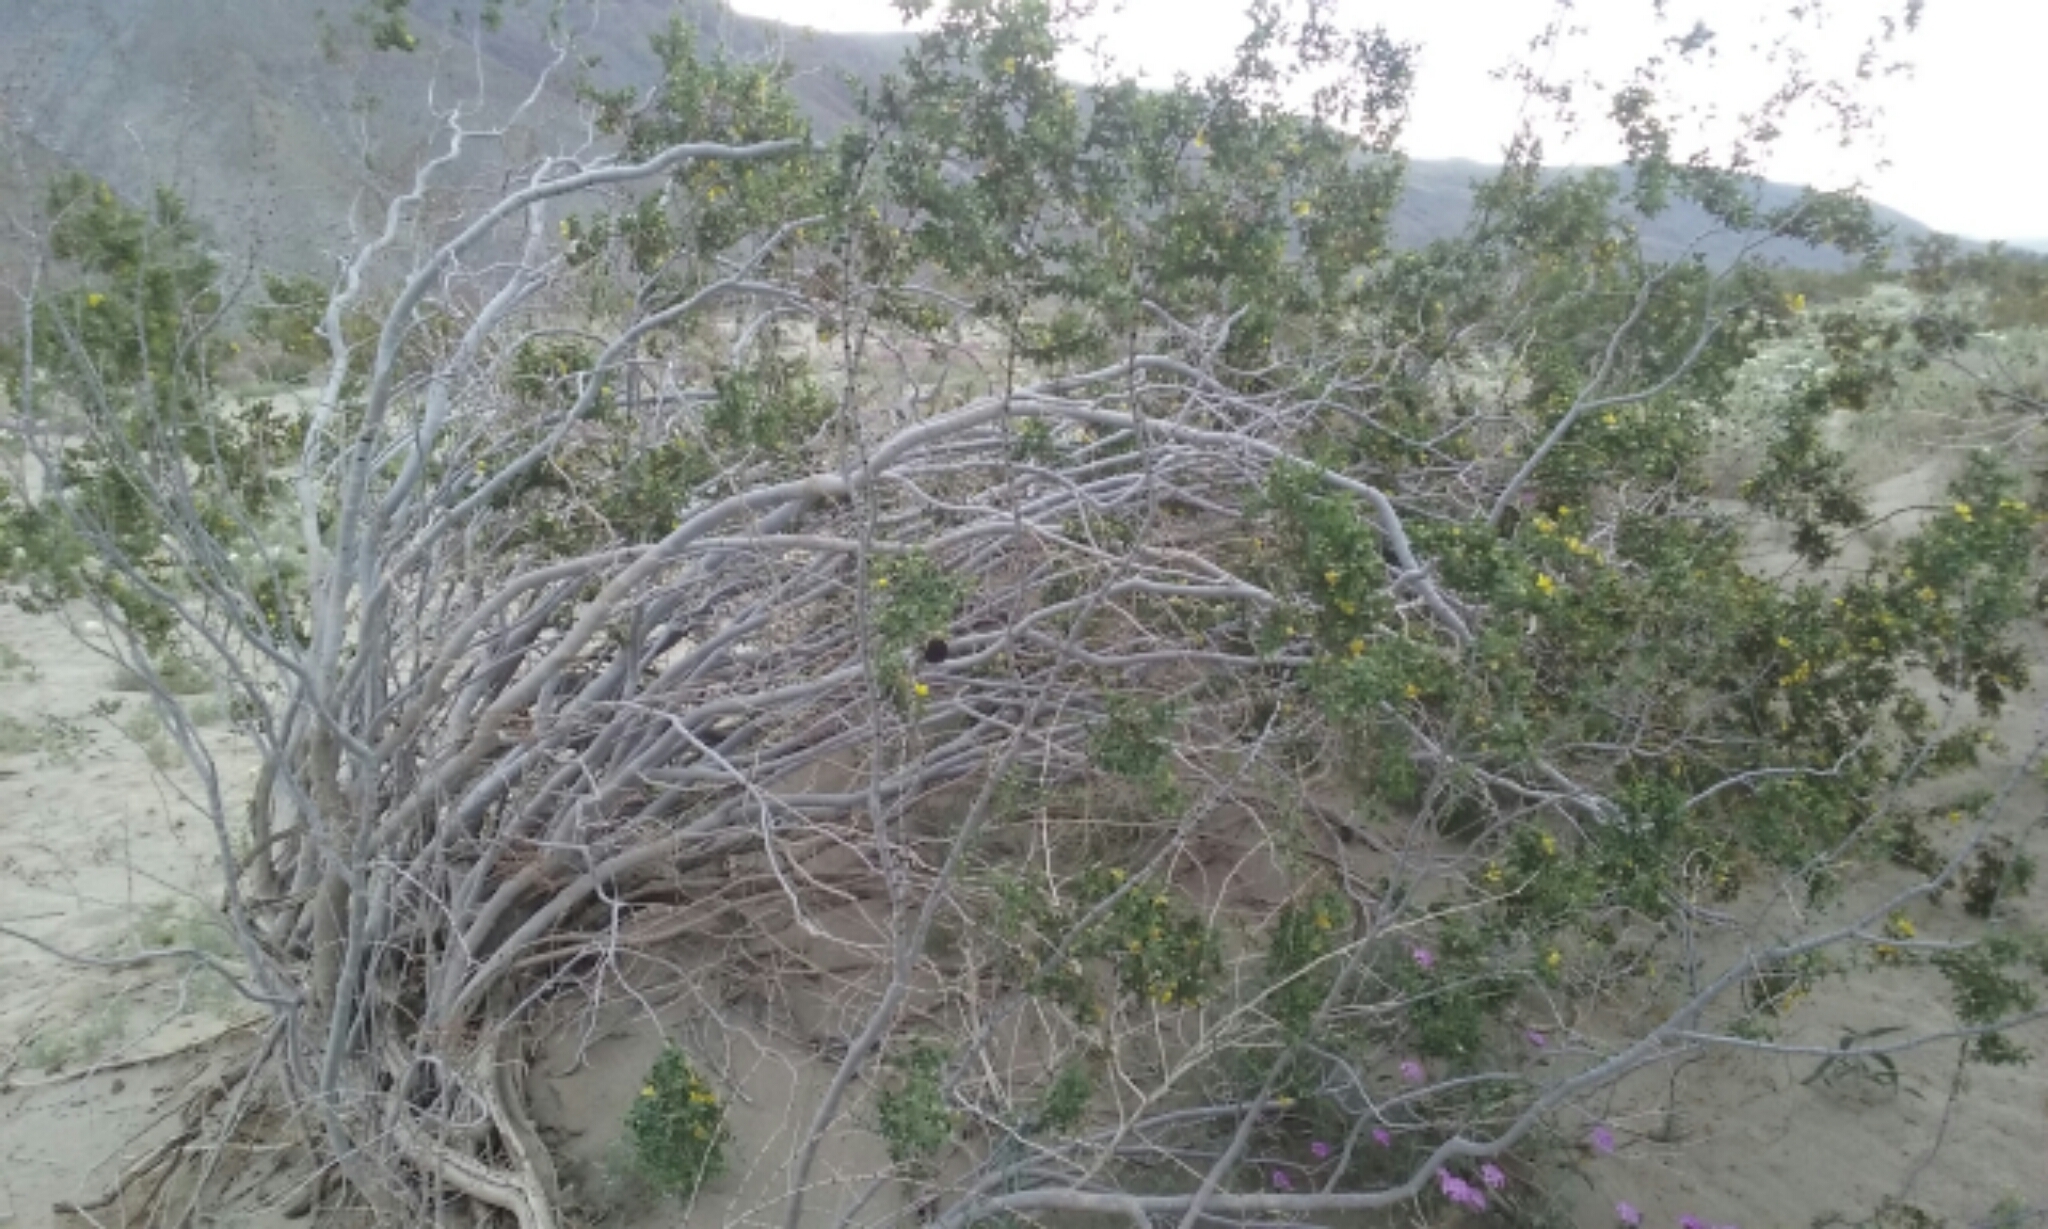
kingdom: Animalia
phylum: Arthropoda
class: Insecta
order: Diptera
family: Cecidomyiidae
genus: Asphondylia
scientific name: Asphondylia auripila
